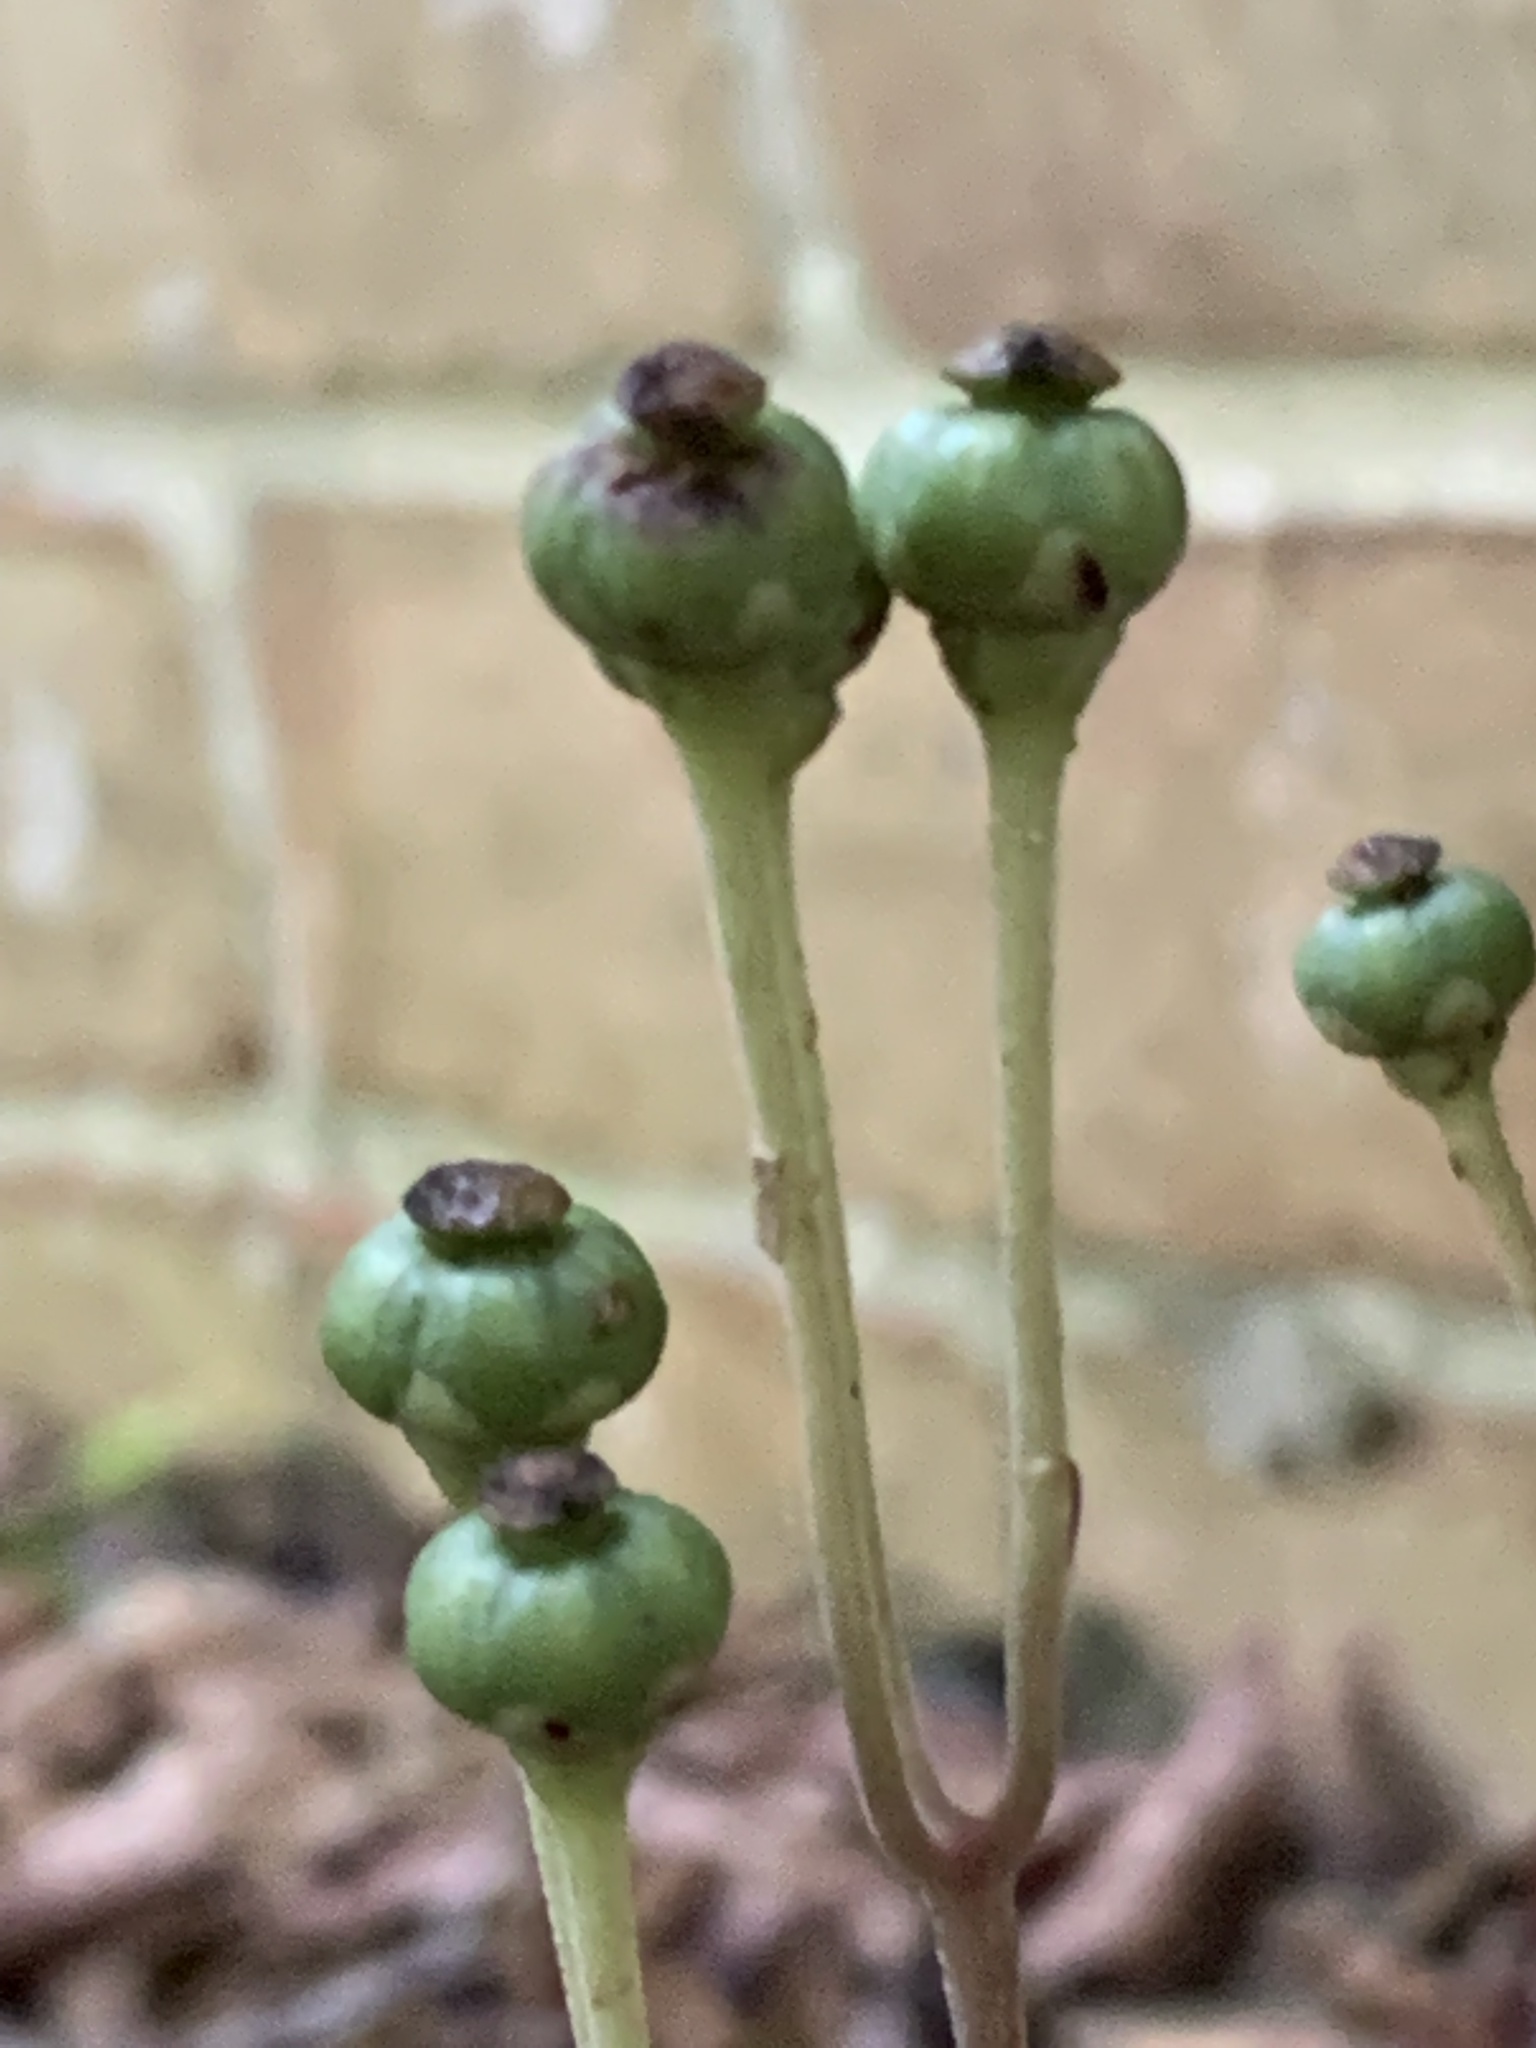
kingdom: Plantae
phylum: Tracheophyta
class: Magnoliopsida
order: Ericales
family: Ericaceae
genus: Chimaphila
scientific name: Chimaphila maculata
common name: Spotted pipsissewa
